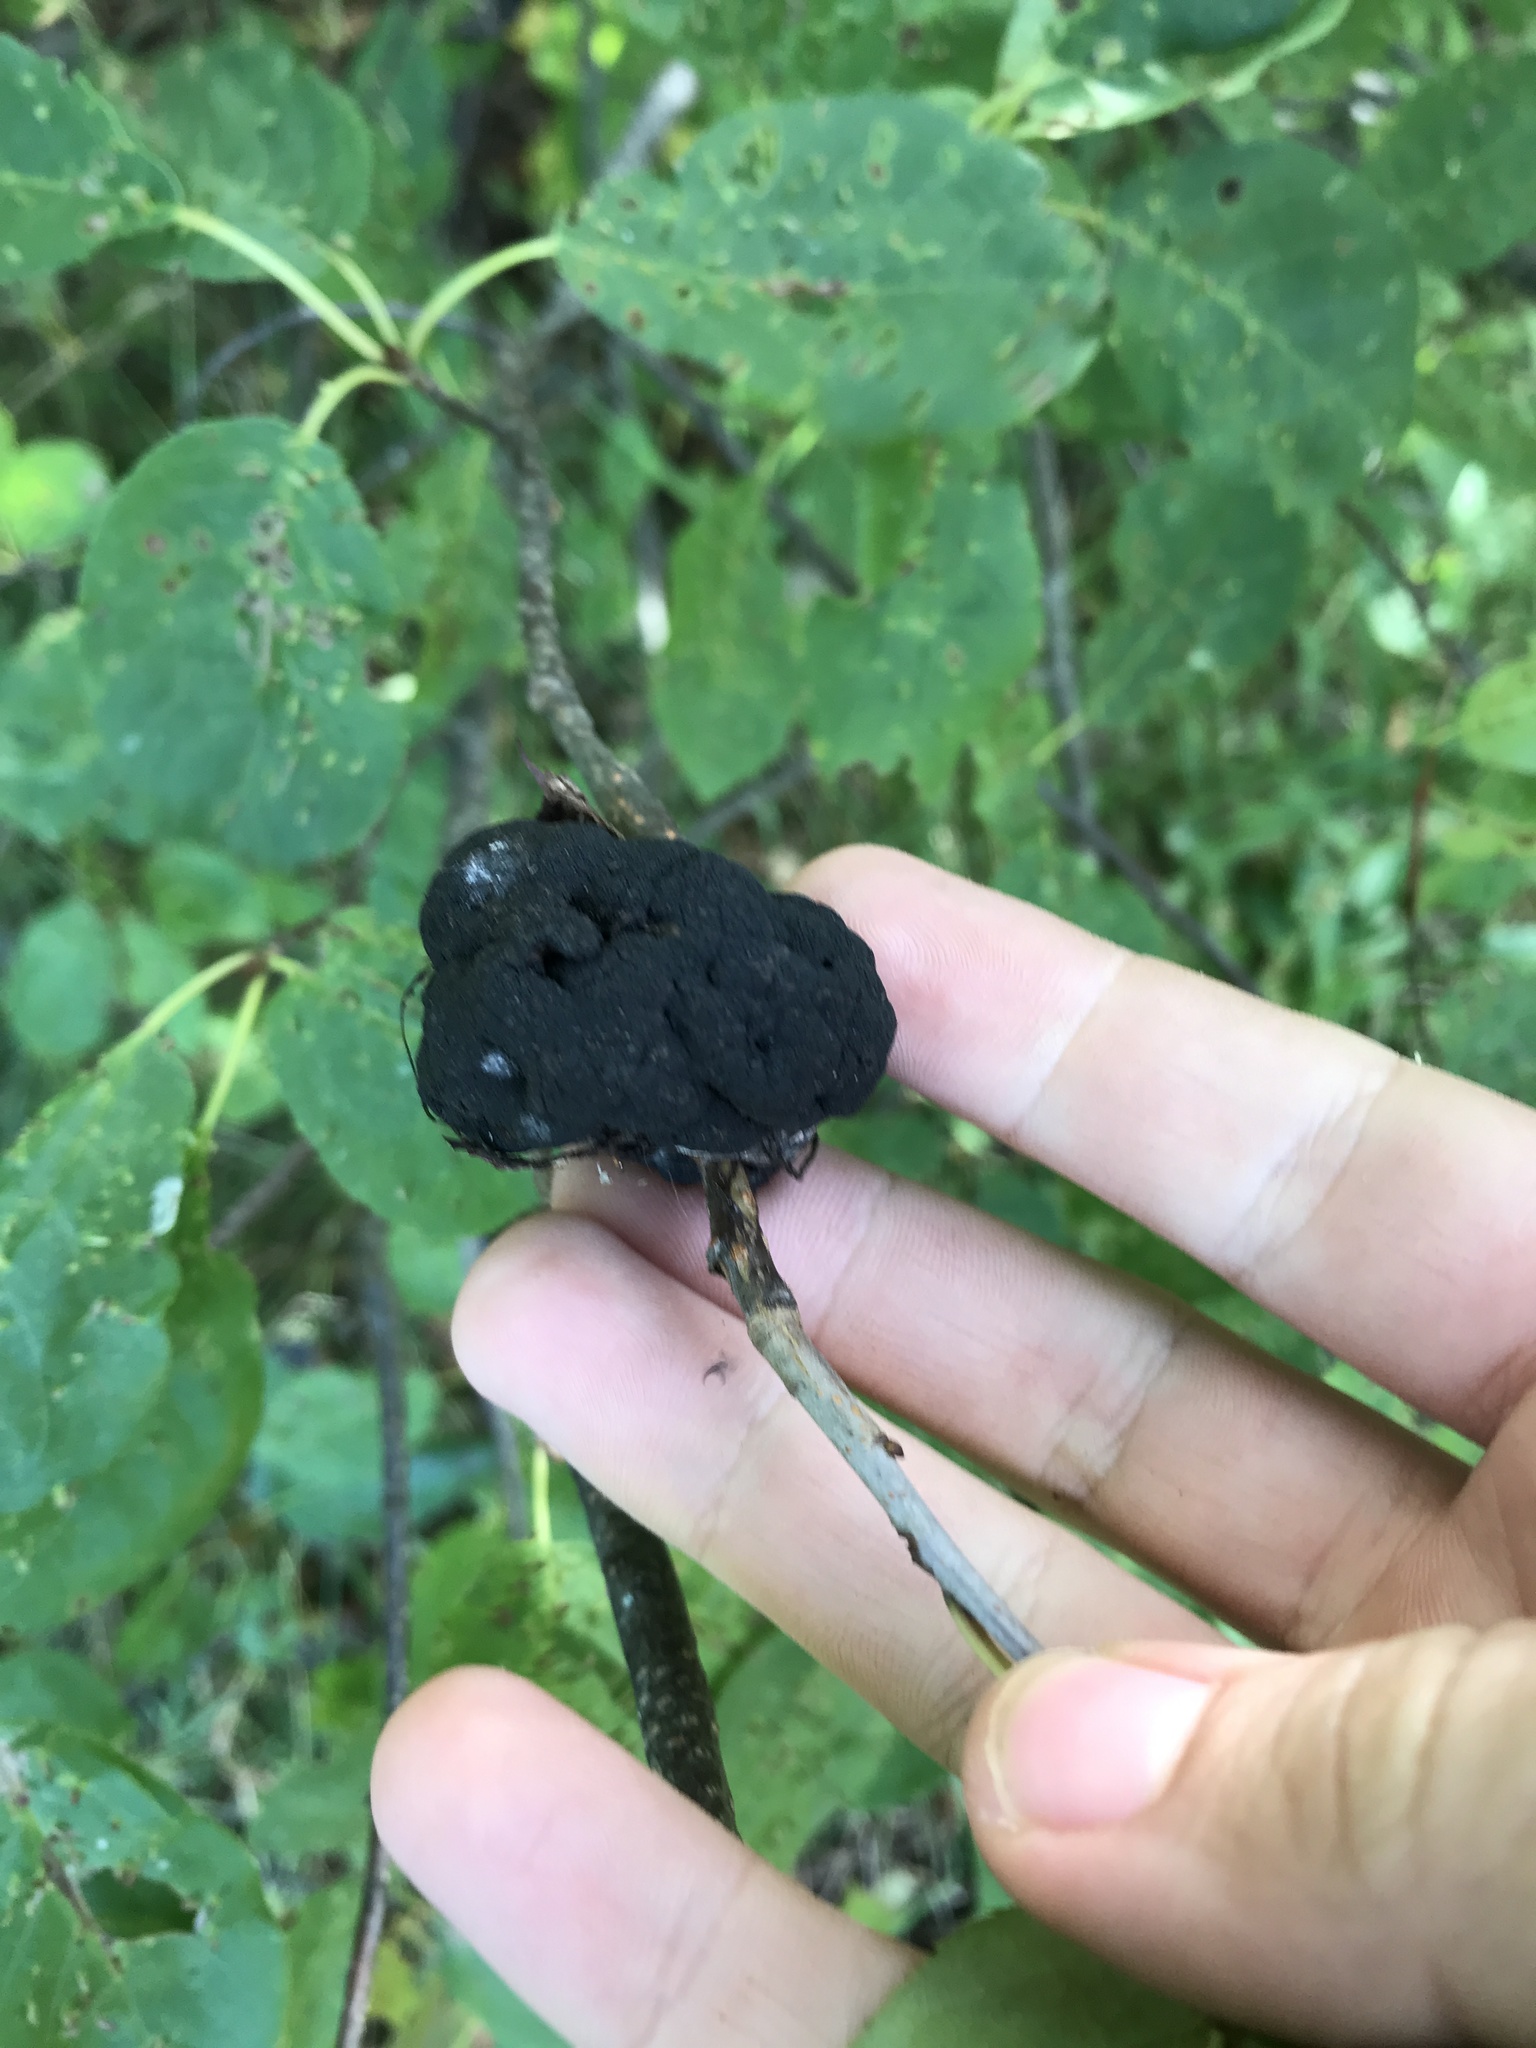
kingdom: Fungi
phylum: Ascomycota
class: Dothideomycetes
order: Venturiales
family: Venturiaceae
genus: Apiosporina
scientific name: Apiosporina morbosa
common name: Black knot
